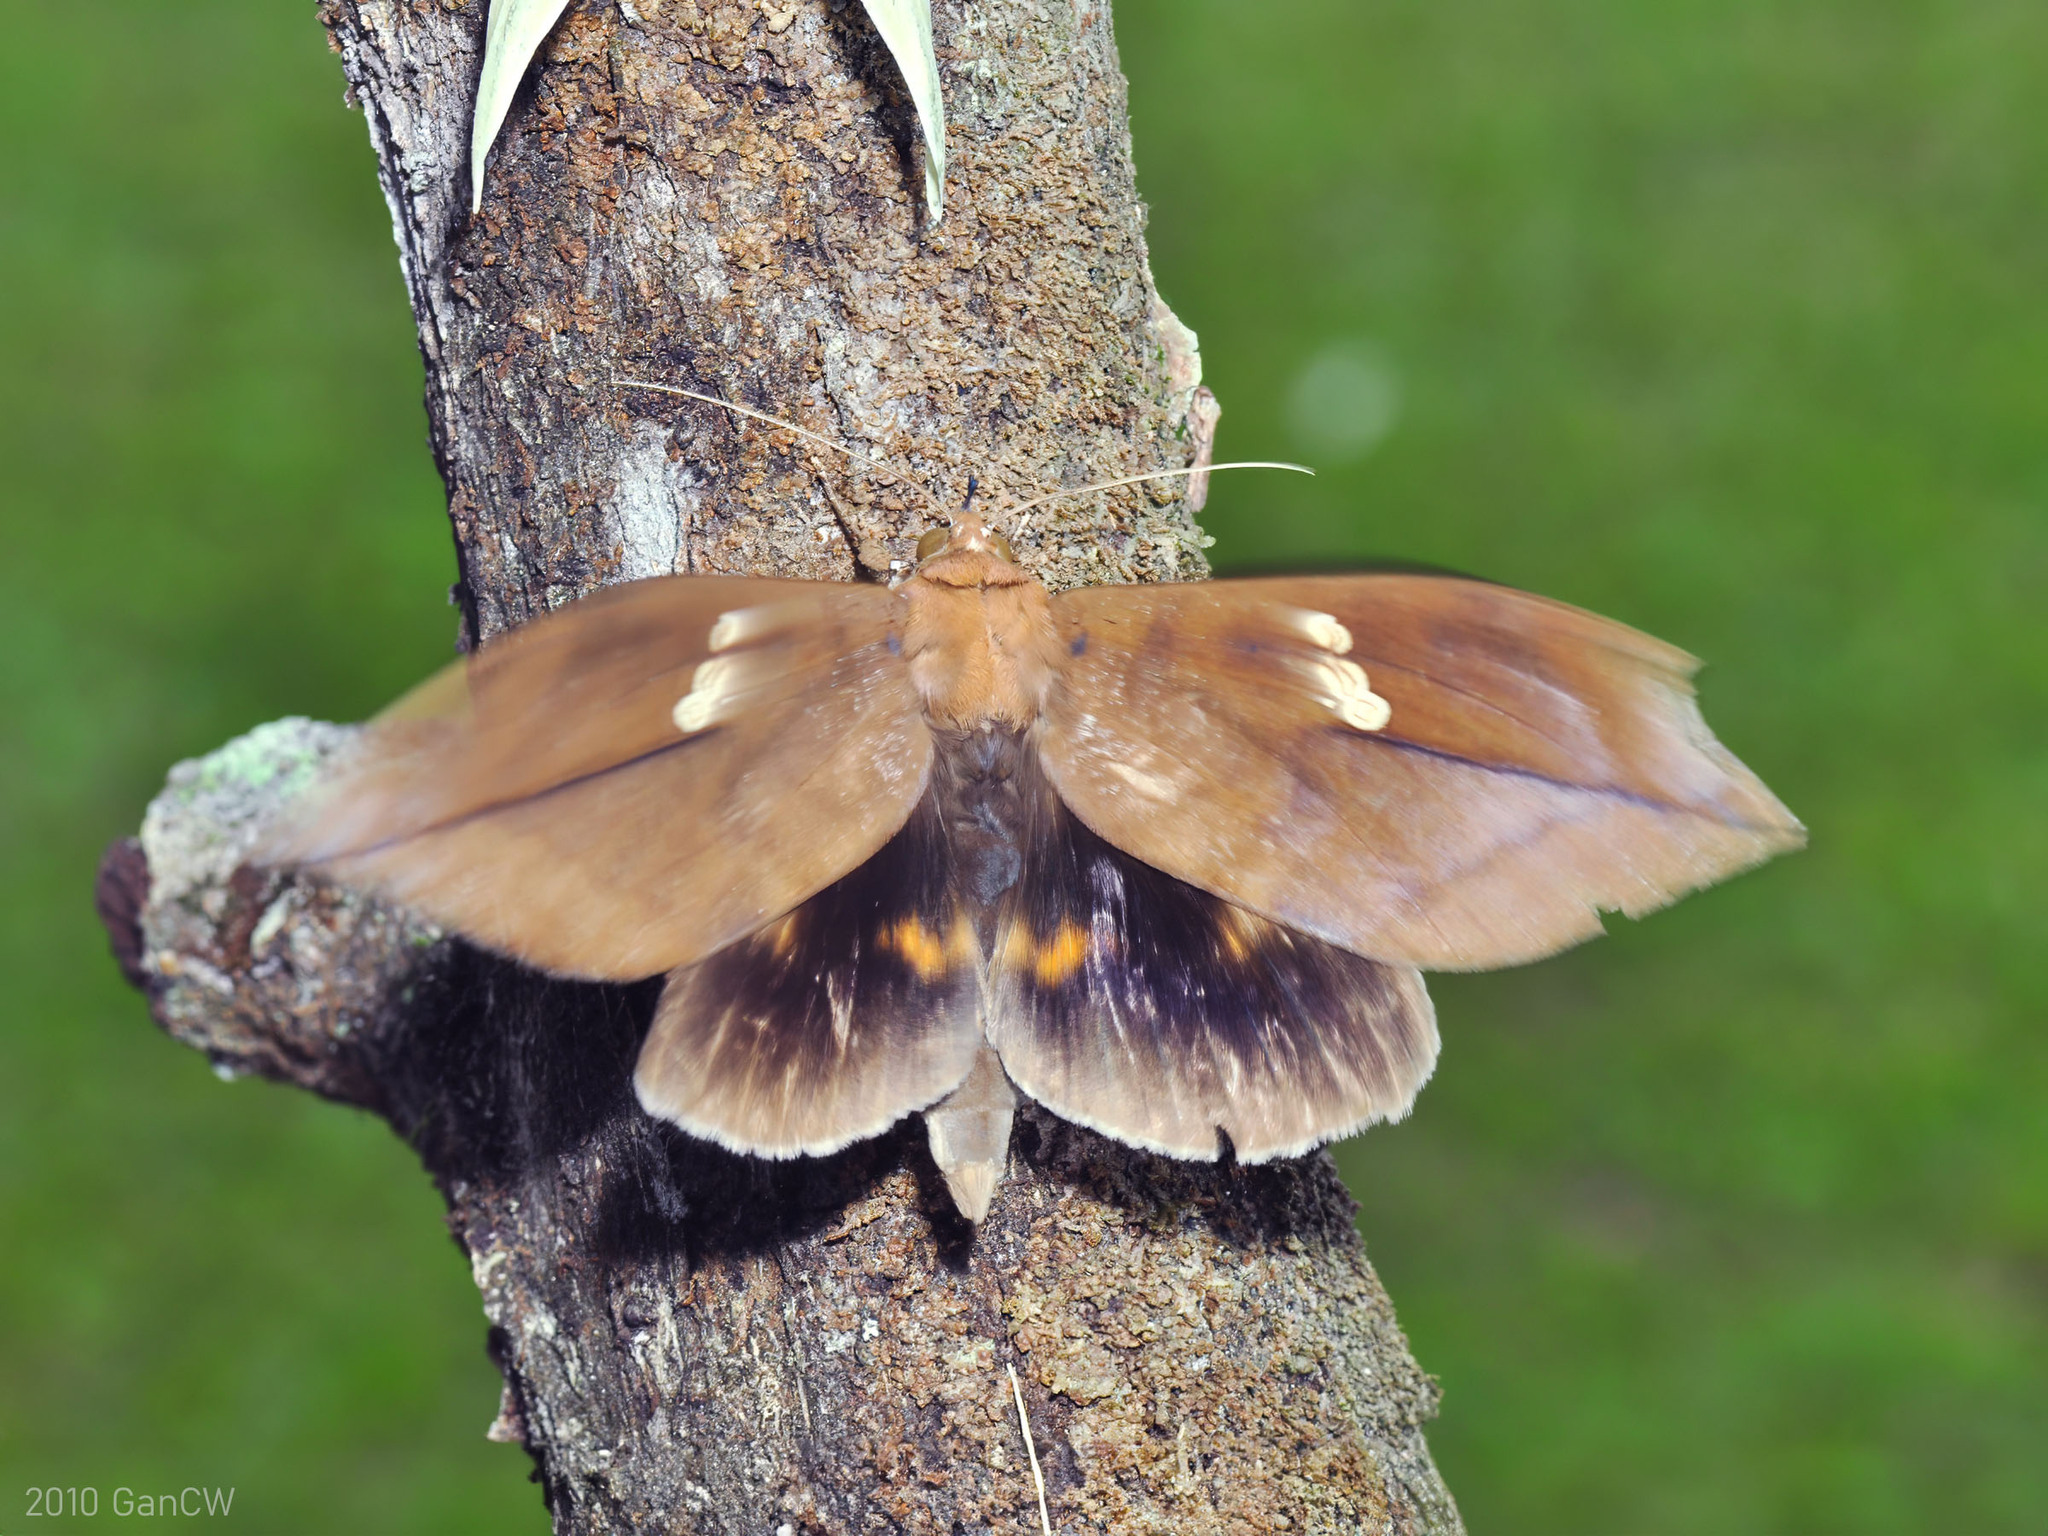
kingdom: Animalia
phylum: Arthropoda
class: Insecta
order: Lepidoptera
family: Erebidae
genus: Phyllodes
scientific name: Phyllodes staudingeri
